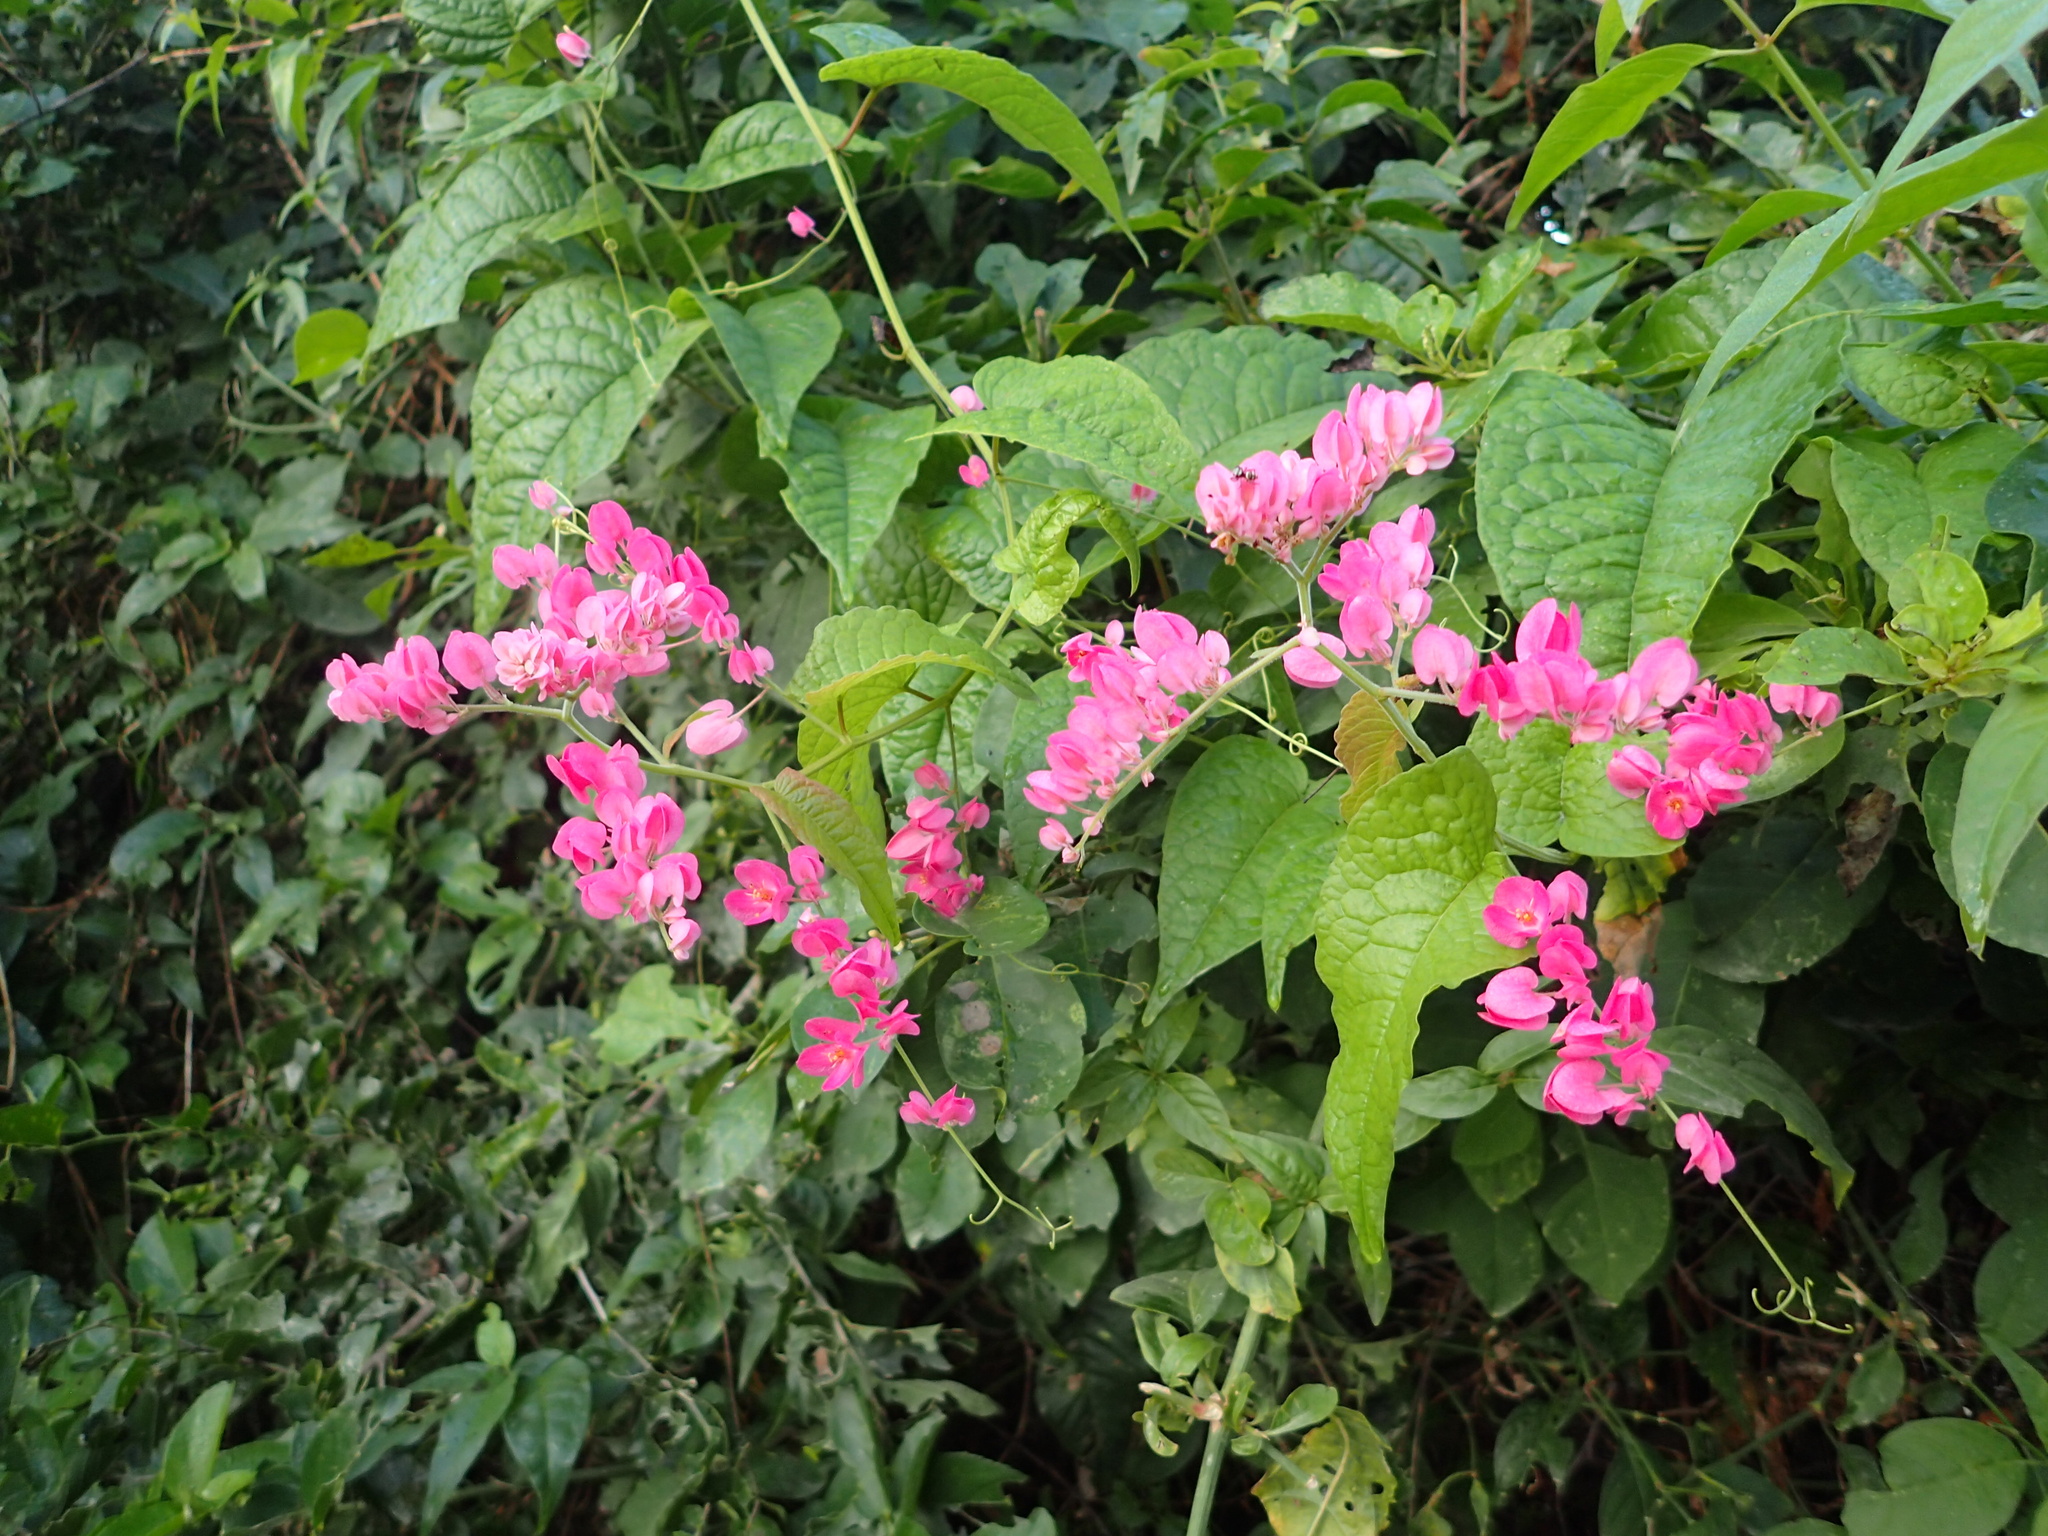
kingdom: Plantae
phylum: Tracheophyta
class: Magnoliopsida
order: Caryophyllales
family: Polygonaceae
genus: Antigonon
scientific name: Antigonon leptopus
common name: Coral vine
